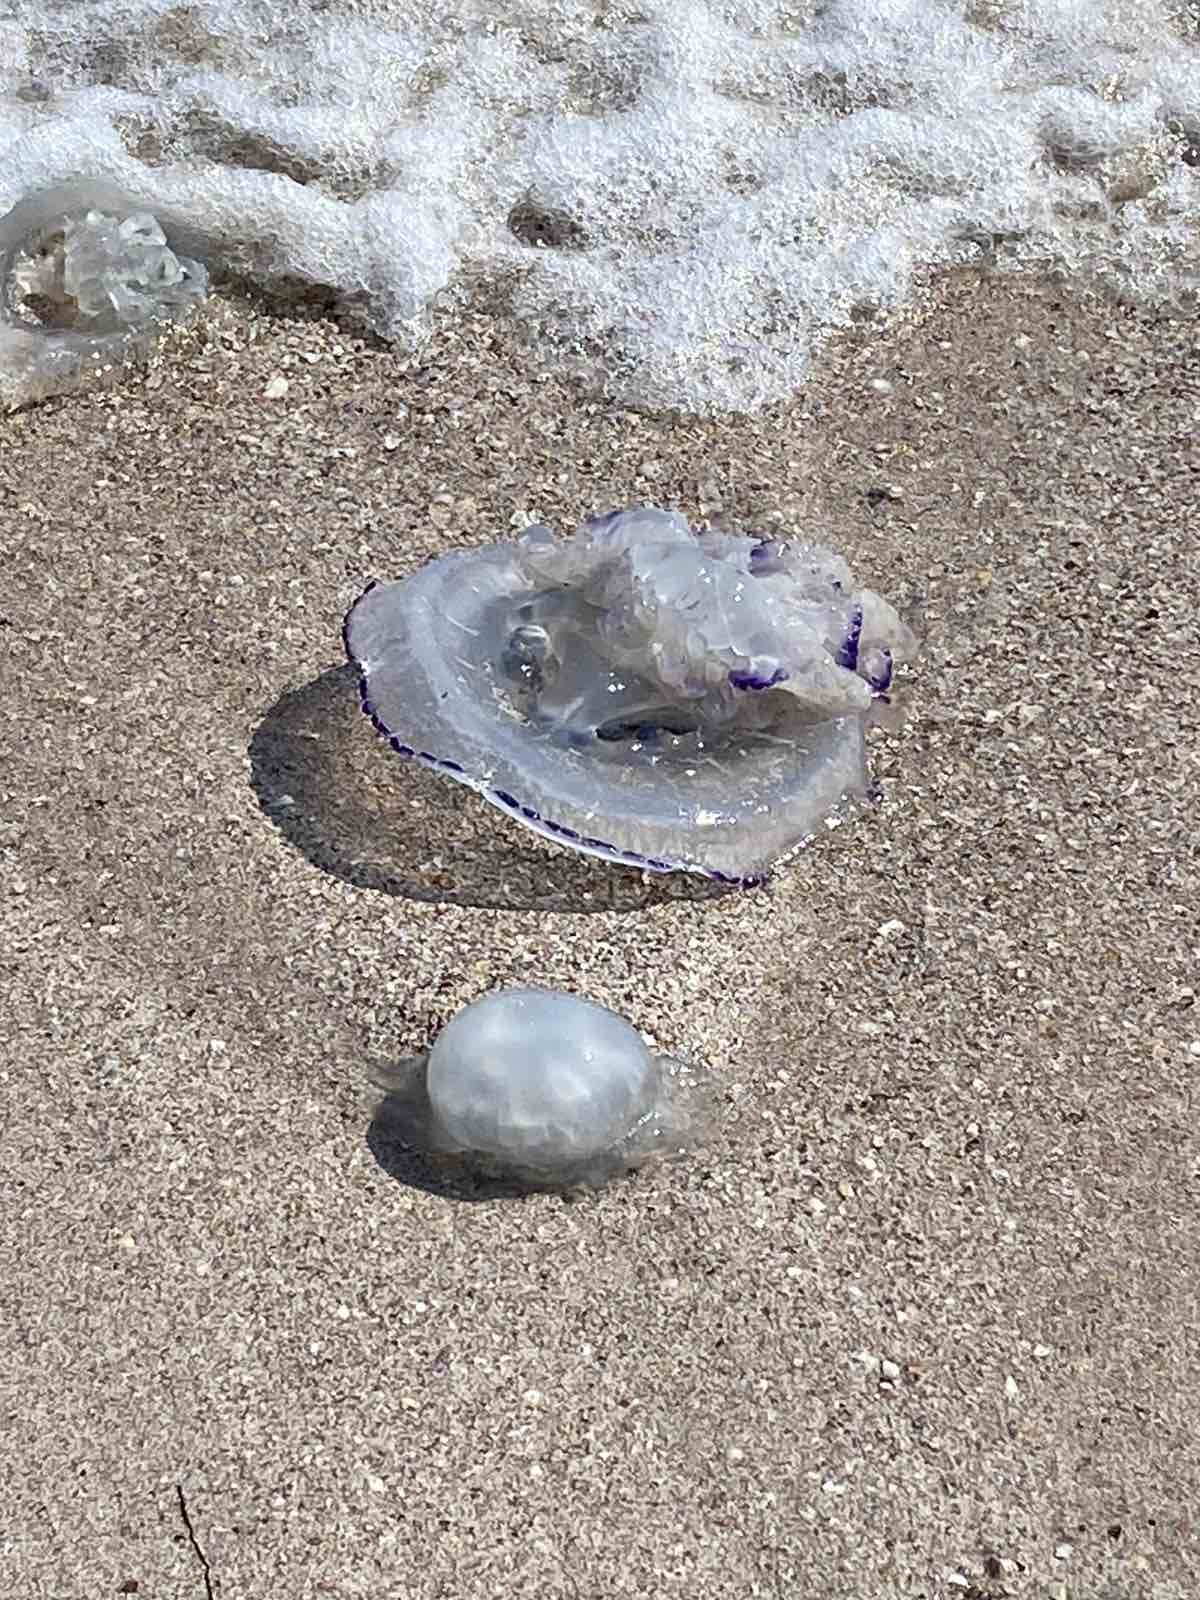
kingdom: Animalia
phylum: Cnidaria
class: Scyphozoa
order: Rhizostomeae
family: Rhizostomatidae
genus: Rhizostoma
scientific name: Rhizostoma pulmo
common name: Barrel jellyfish
